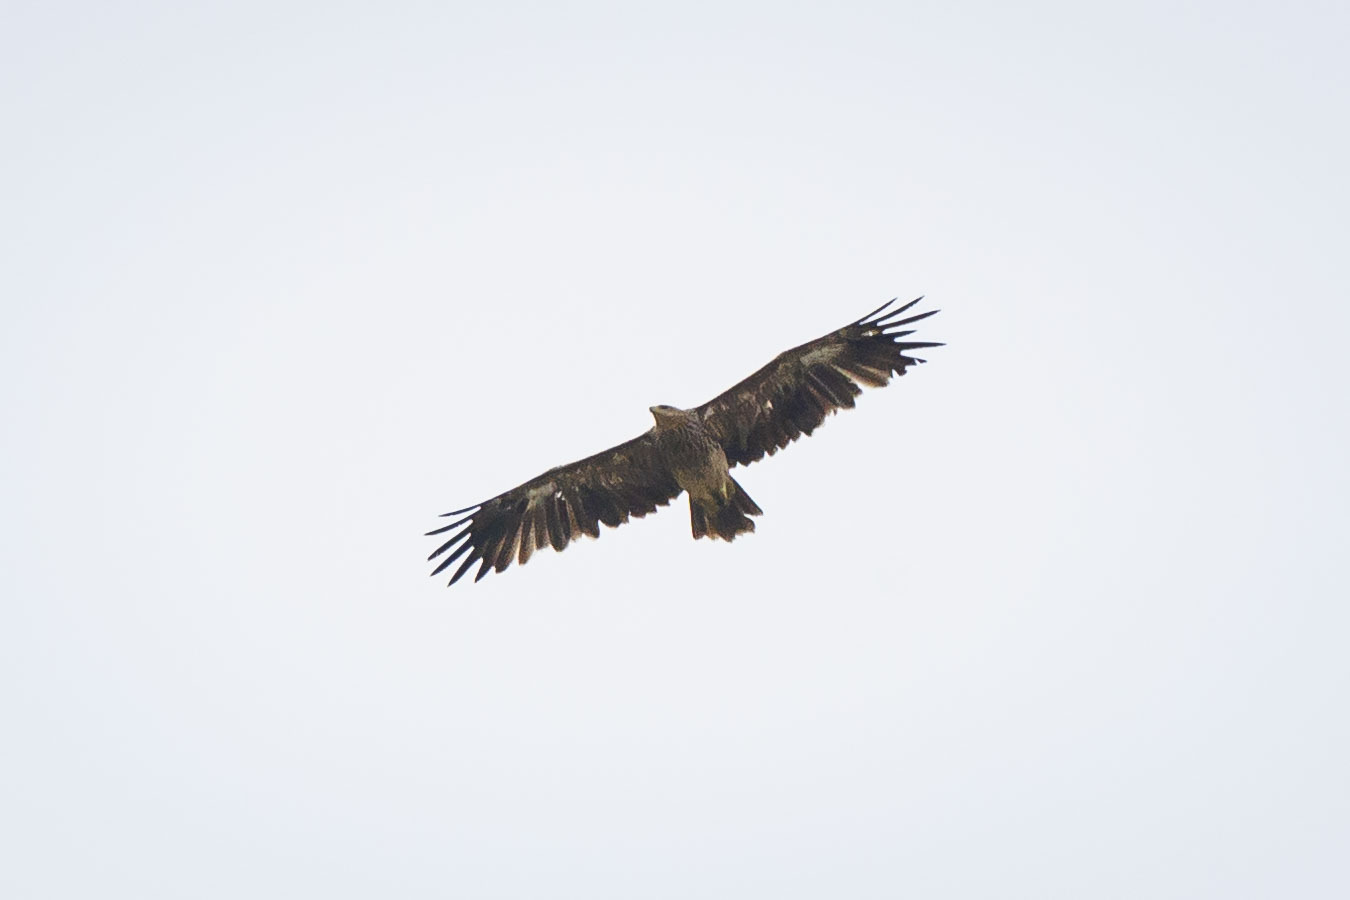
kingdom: Animalia
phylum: Chordata
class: Aves
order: Accipitriformes
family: Accipitridae
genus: Aquila
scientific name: Aquila heliaca
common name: Eastern imperial eagle
